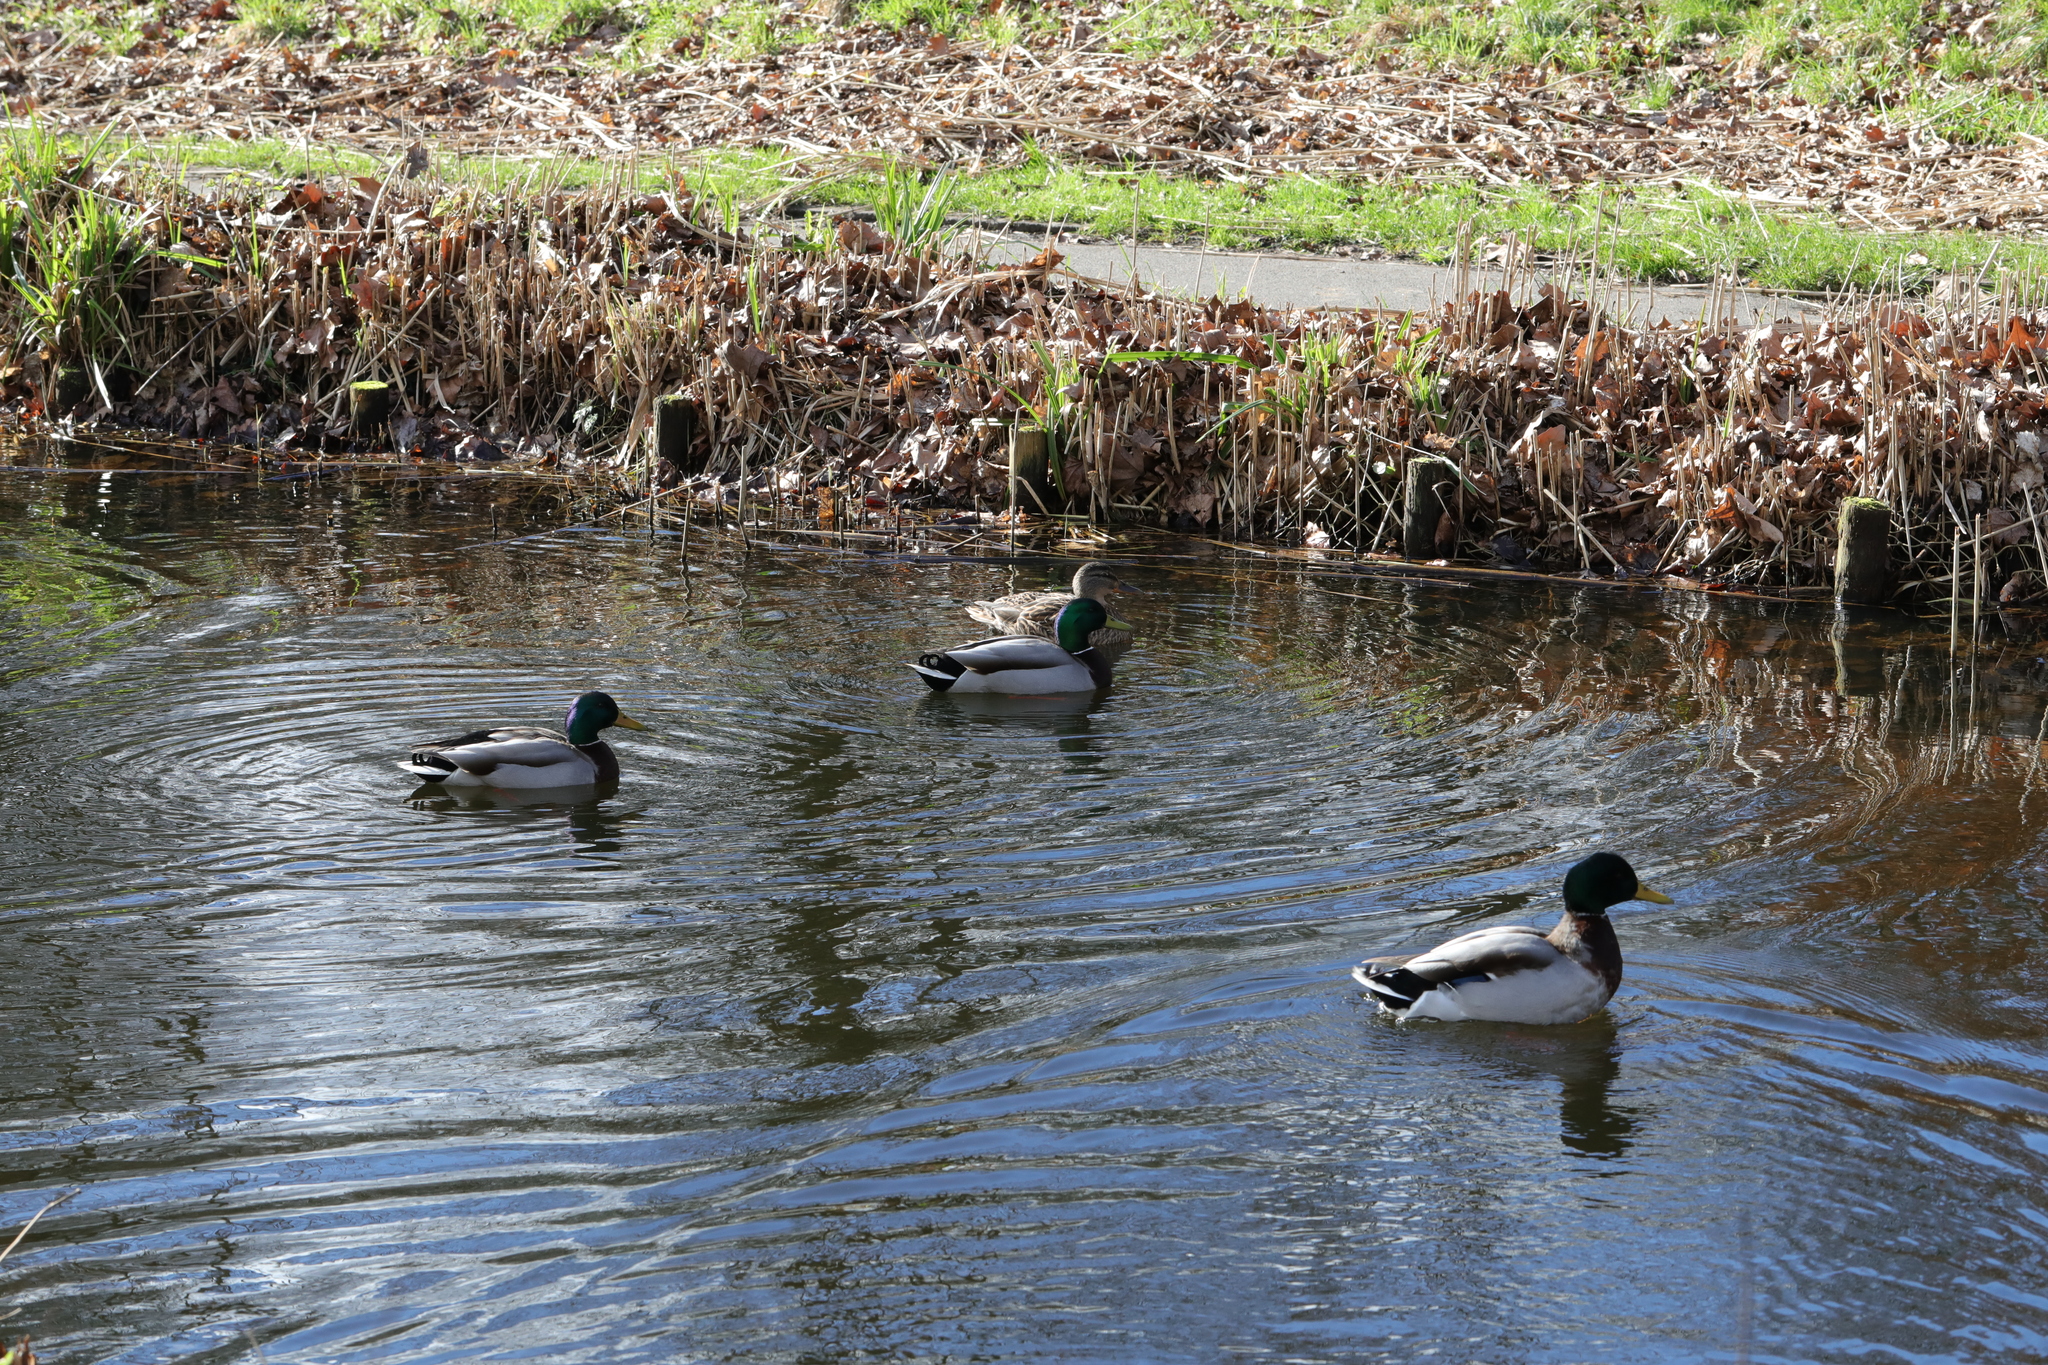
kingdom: Animalia
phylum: Chordata
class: Aves
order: Anseriformes
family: Anatidae
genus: Anas
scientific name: Anas platyrhynchos
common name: Mallard
